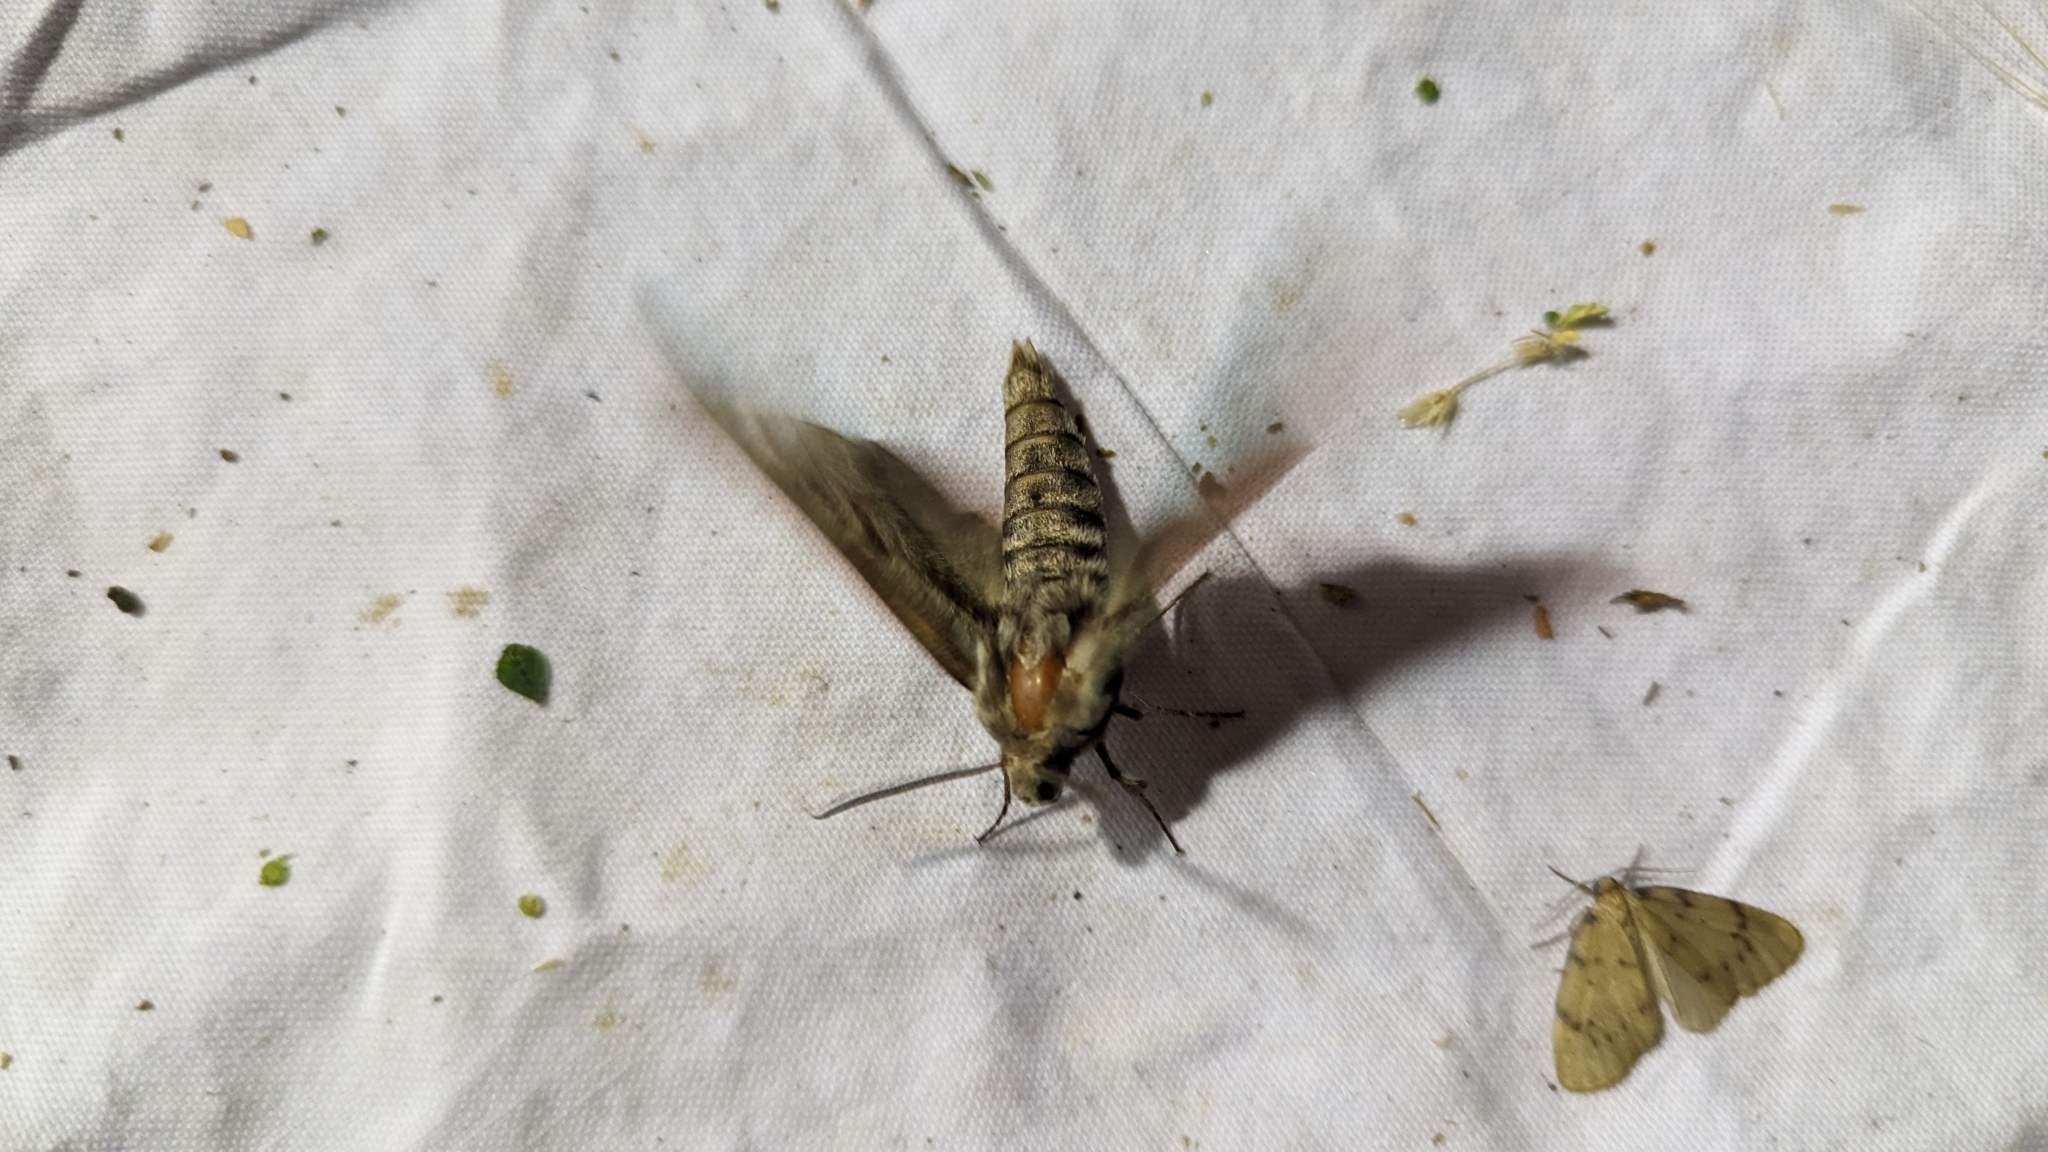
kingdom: Animalia
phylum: Arthropoda
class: Insecta
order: Lepidoptera
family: Sphingidae
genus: Sphinx
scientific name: Sphinx pinastri
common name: Pine hawk-moth
